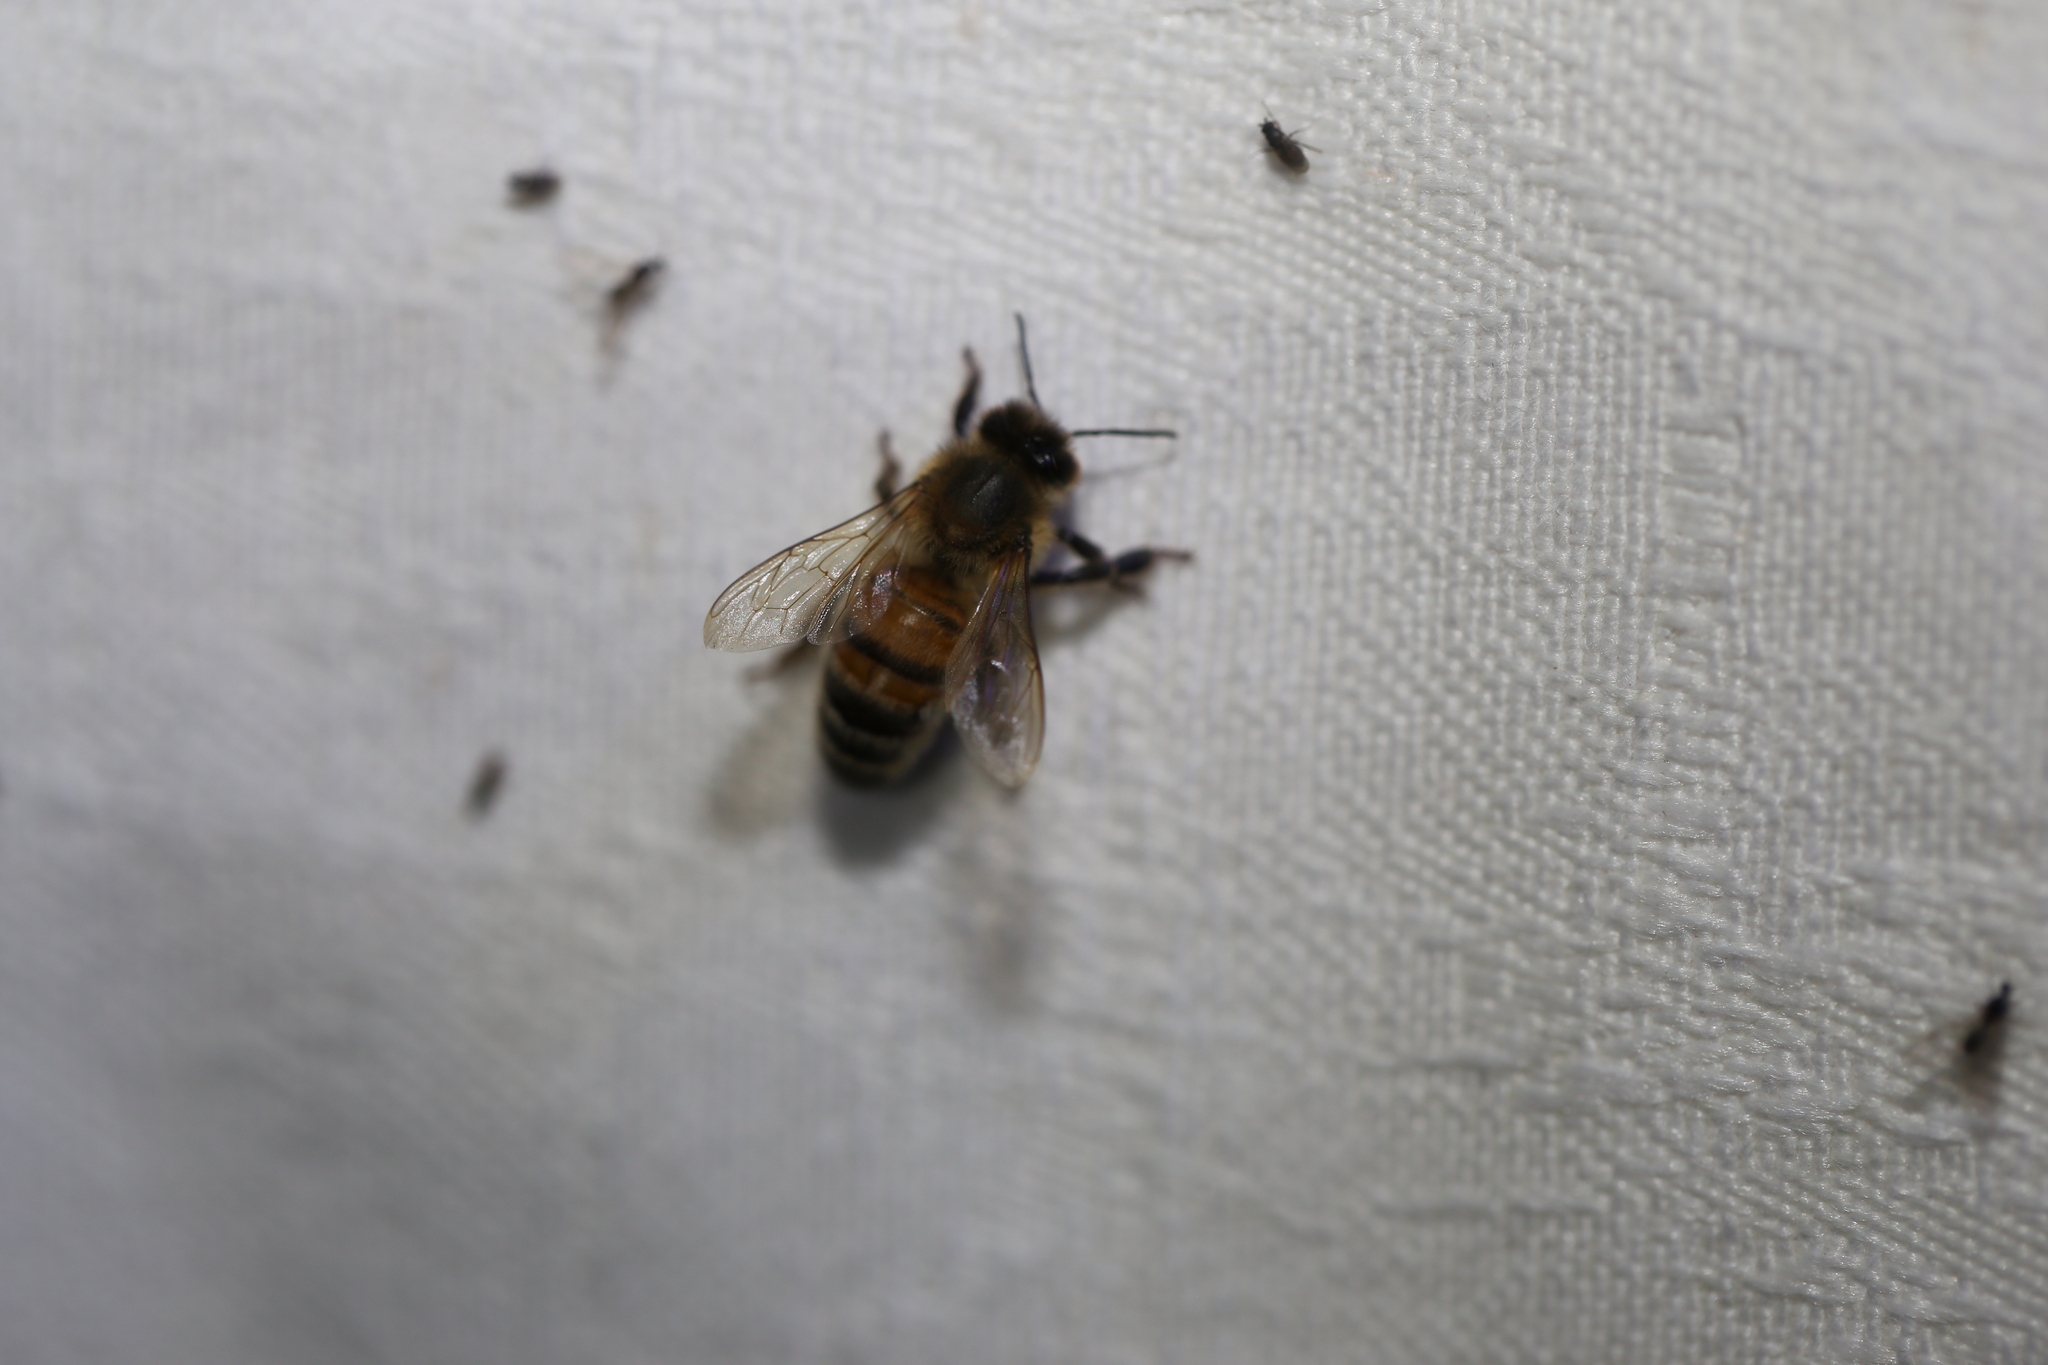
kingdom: Animalia
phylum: Arthropoda
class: Insecta
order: Hymenoptera
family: Apidae
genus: Apis
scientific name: Apis mellifera
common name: Honey bee
